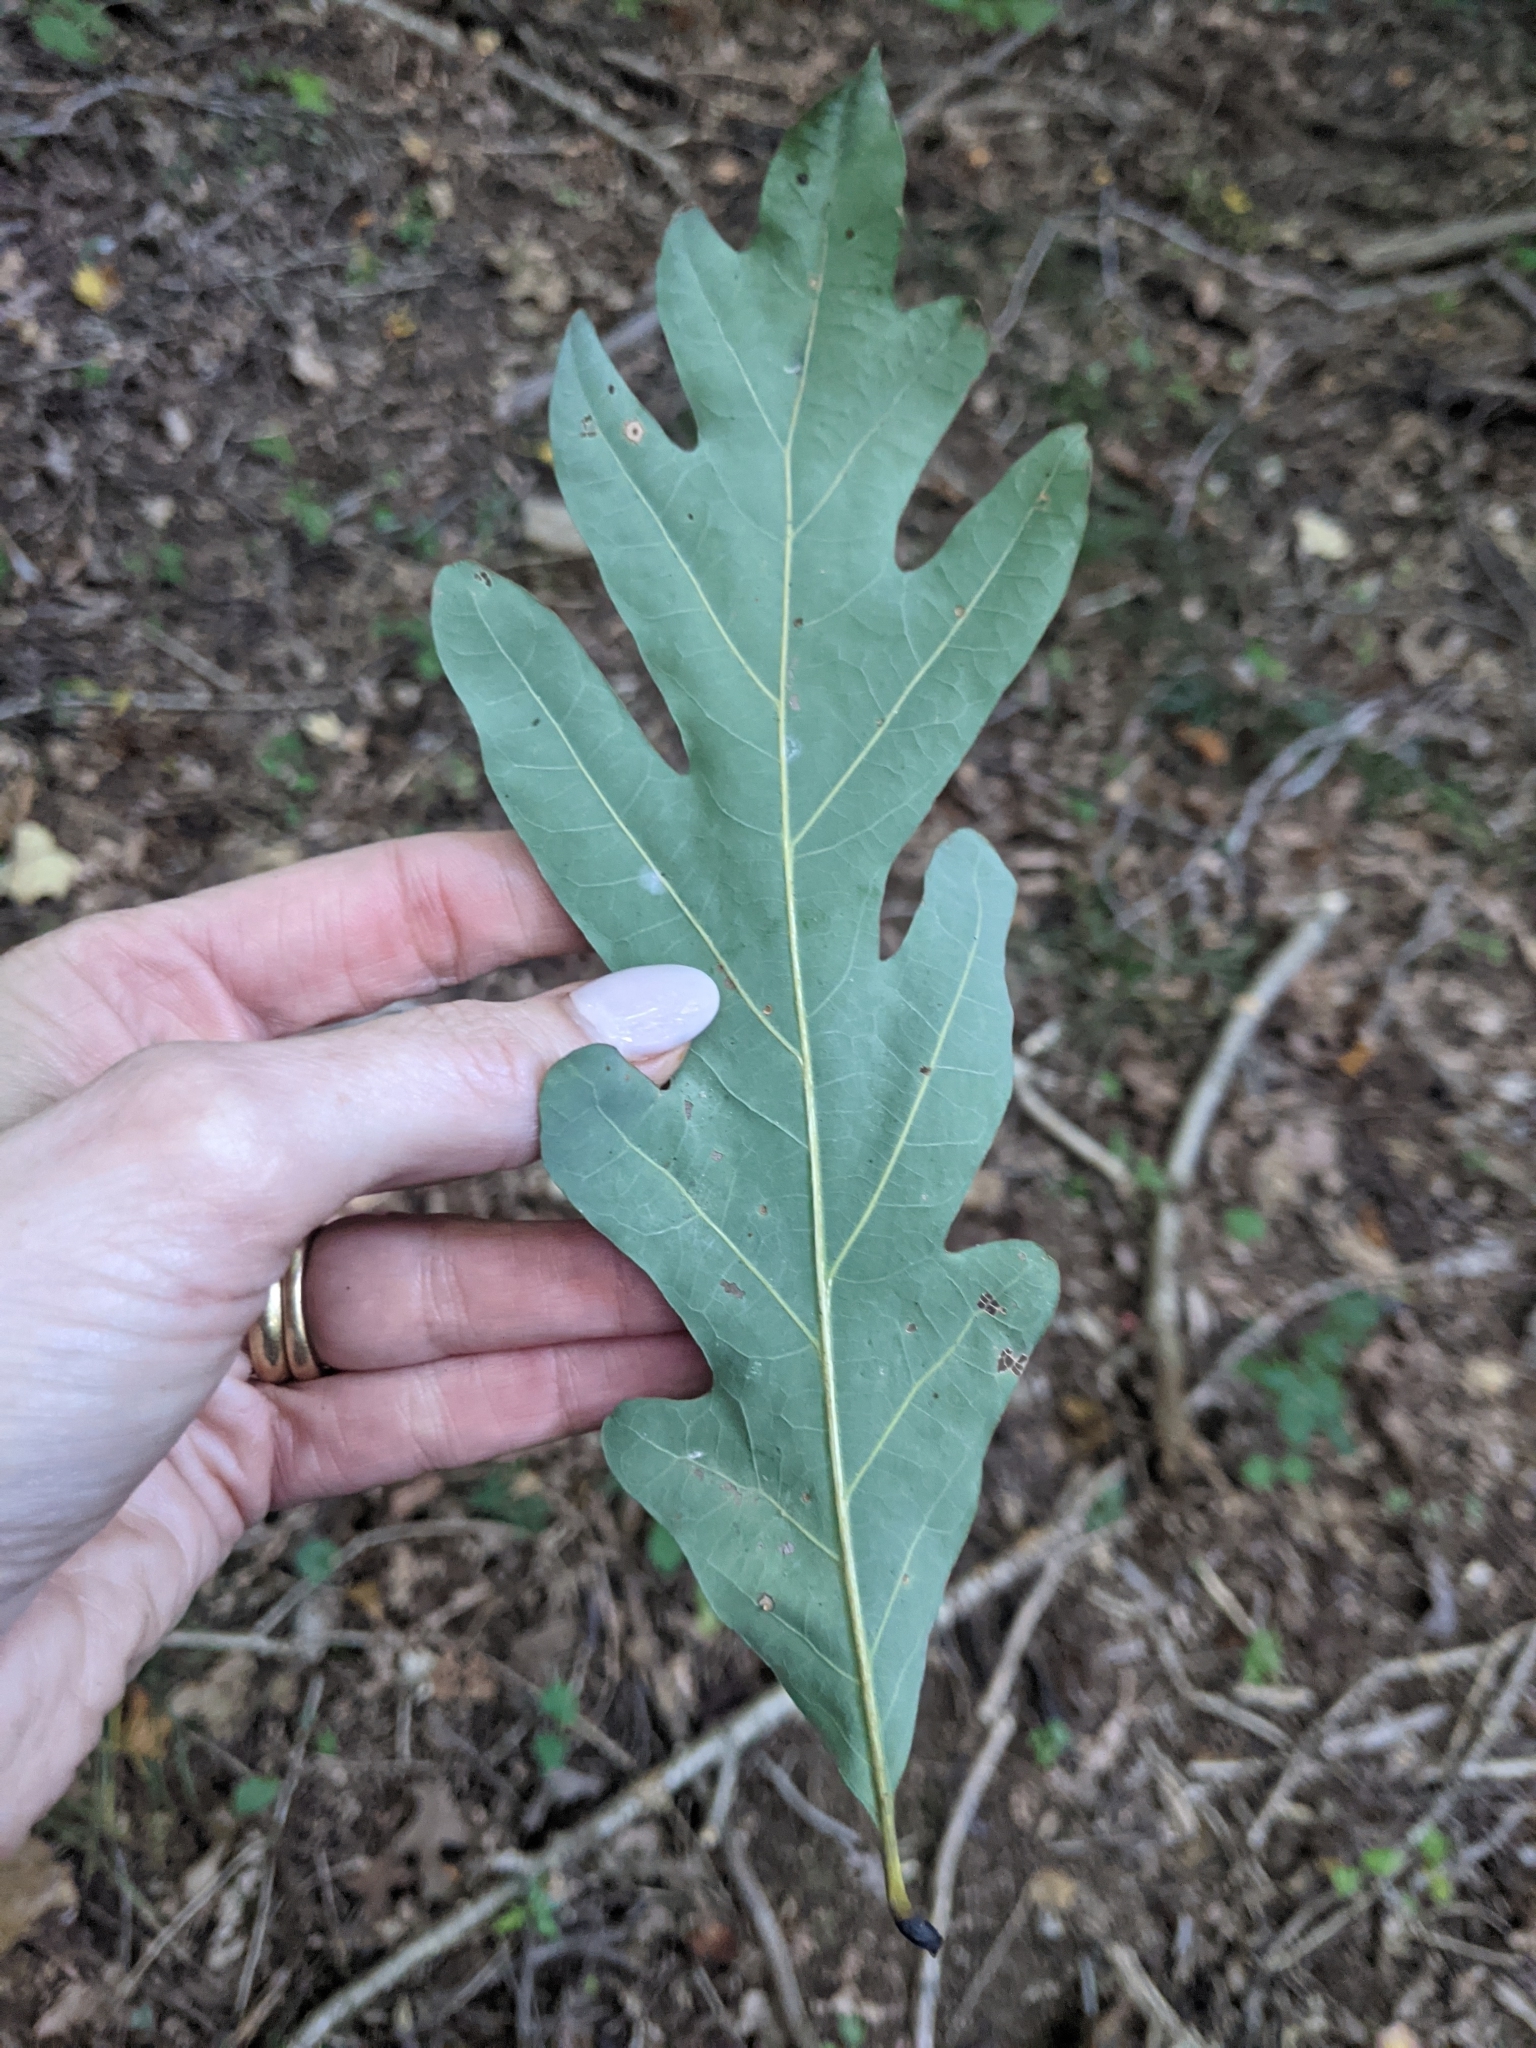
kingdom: Plantae
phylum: Tracheophyta
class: Magnoliopsida
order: Fagales
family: Fagaceae
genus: Quercus
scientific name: Quercus alba
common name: White oak
